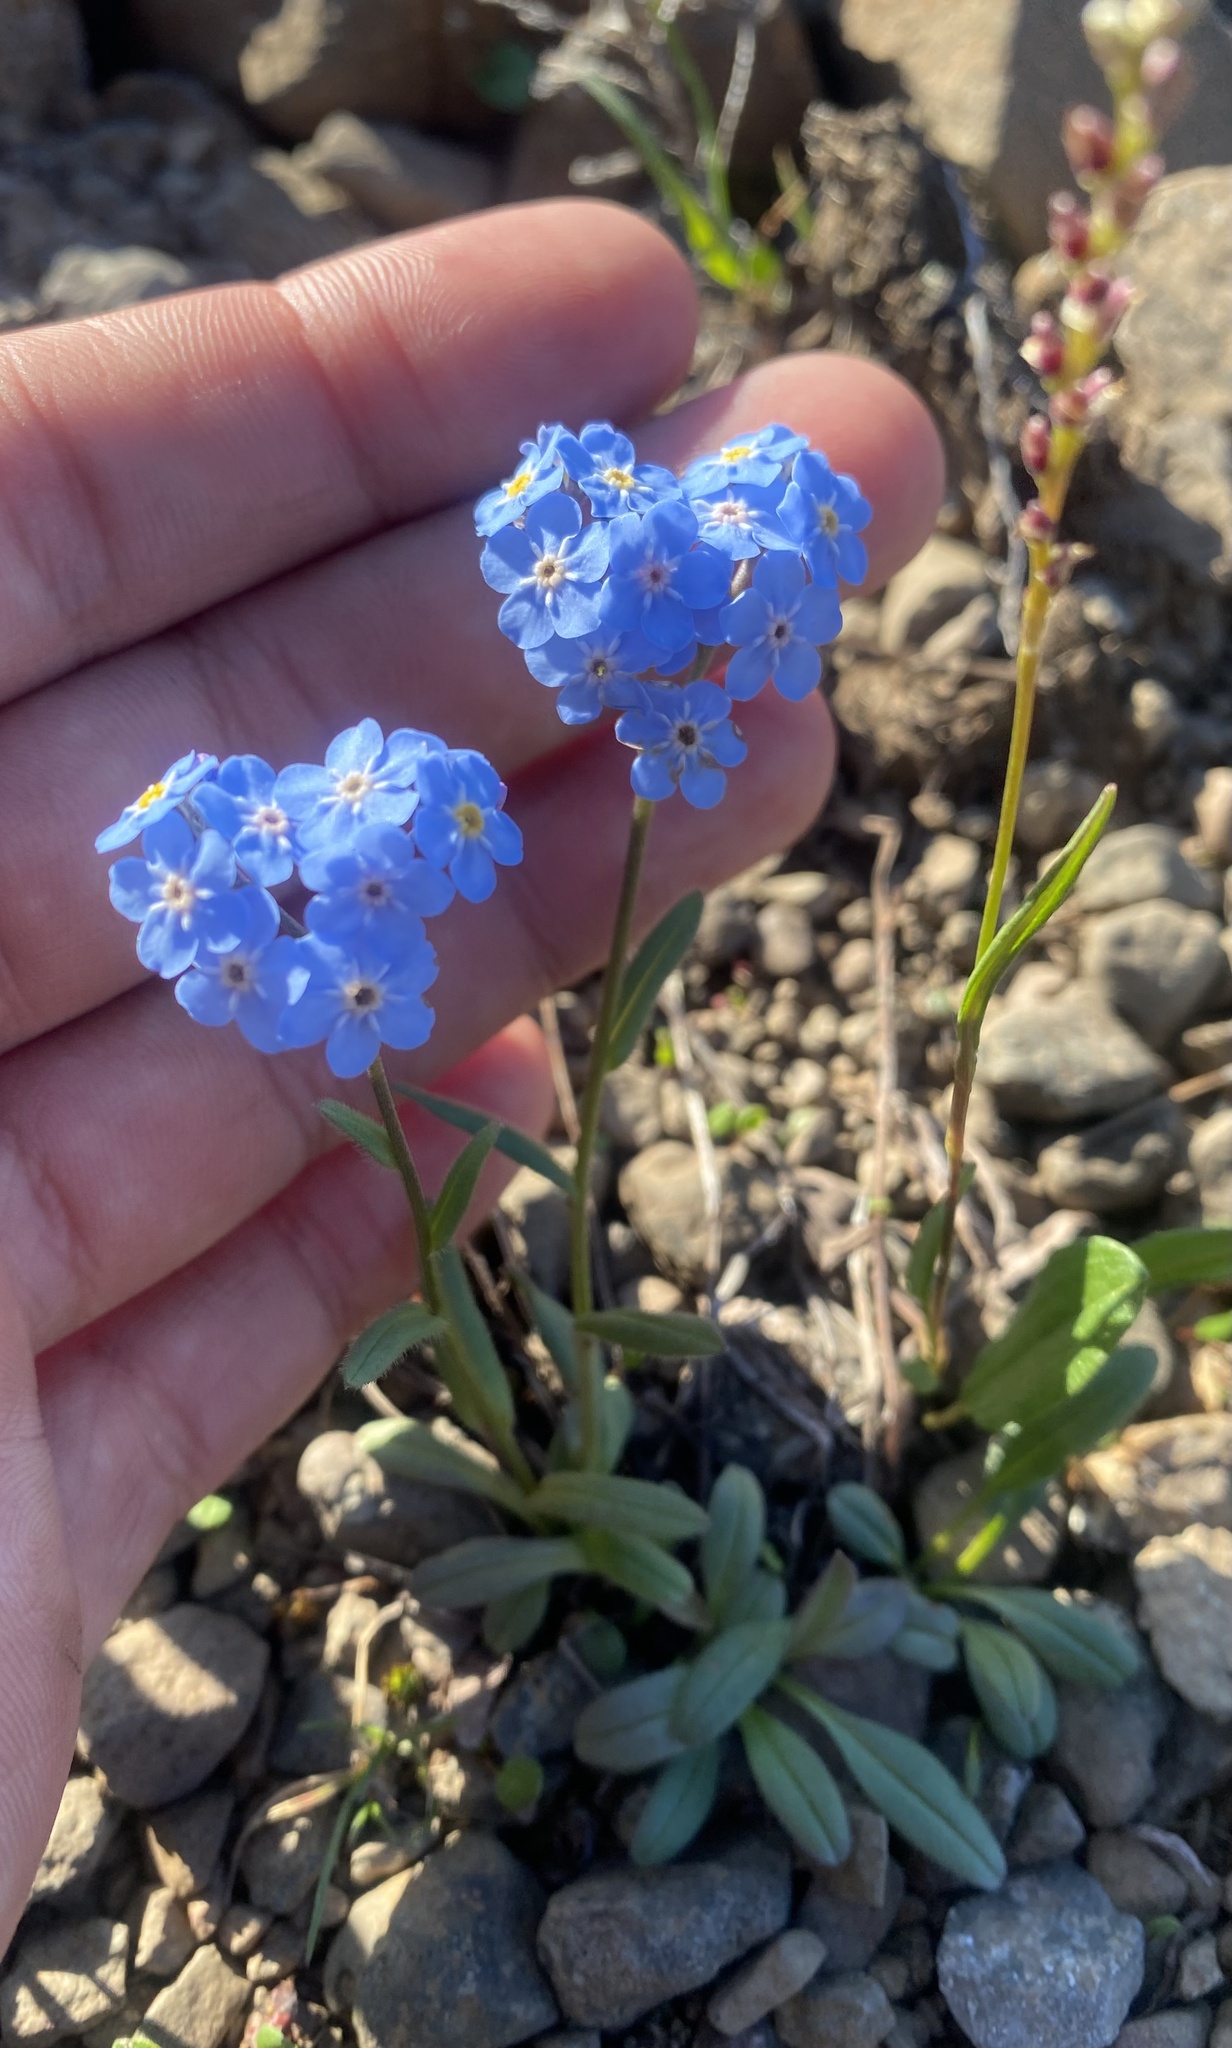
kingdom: Plantae
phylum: Tracheophyta
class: Magnoliopsida
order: Boraginales
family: Boraginaceae
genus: Myosotis
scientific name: Myosotis asiatica
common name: Asian forget-me-not
